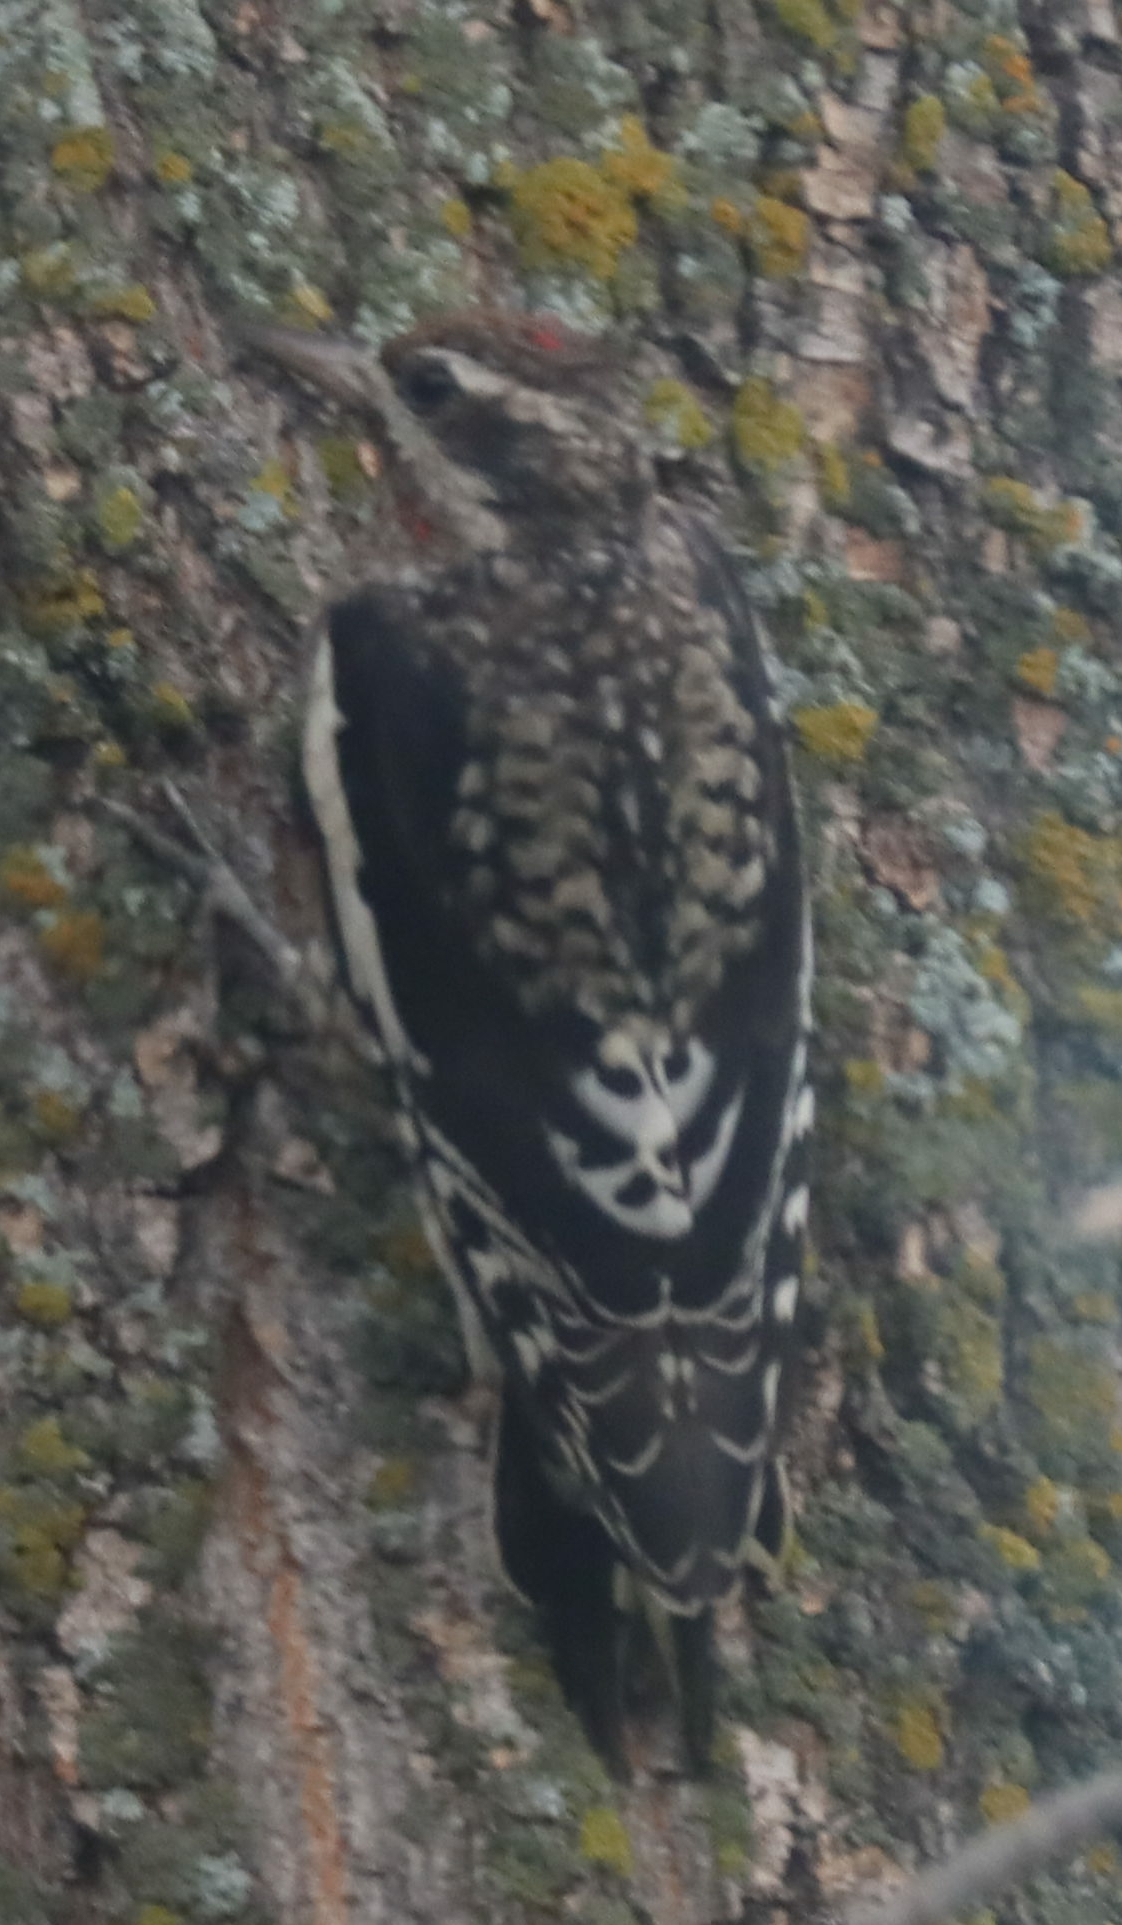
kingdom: Animalia
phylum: Chordata
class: Aves
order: Piciformes
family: Picidae
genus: Sphyrapicus
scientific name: Sphyrapicus varius
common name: Yellow-bellied sapsucker
